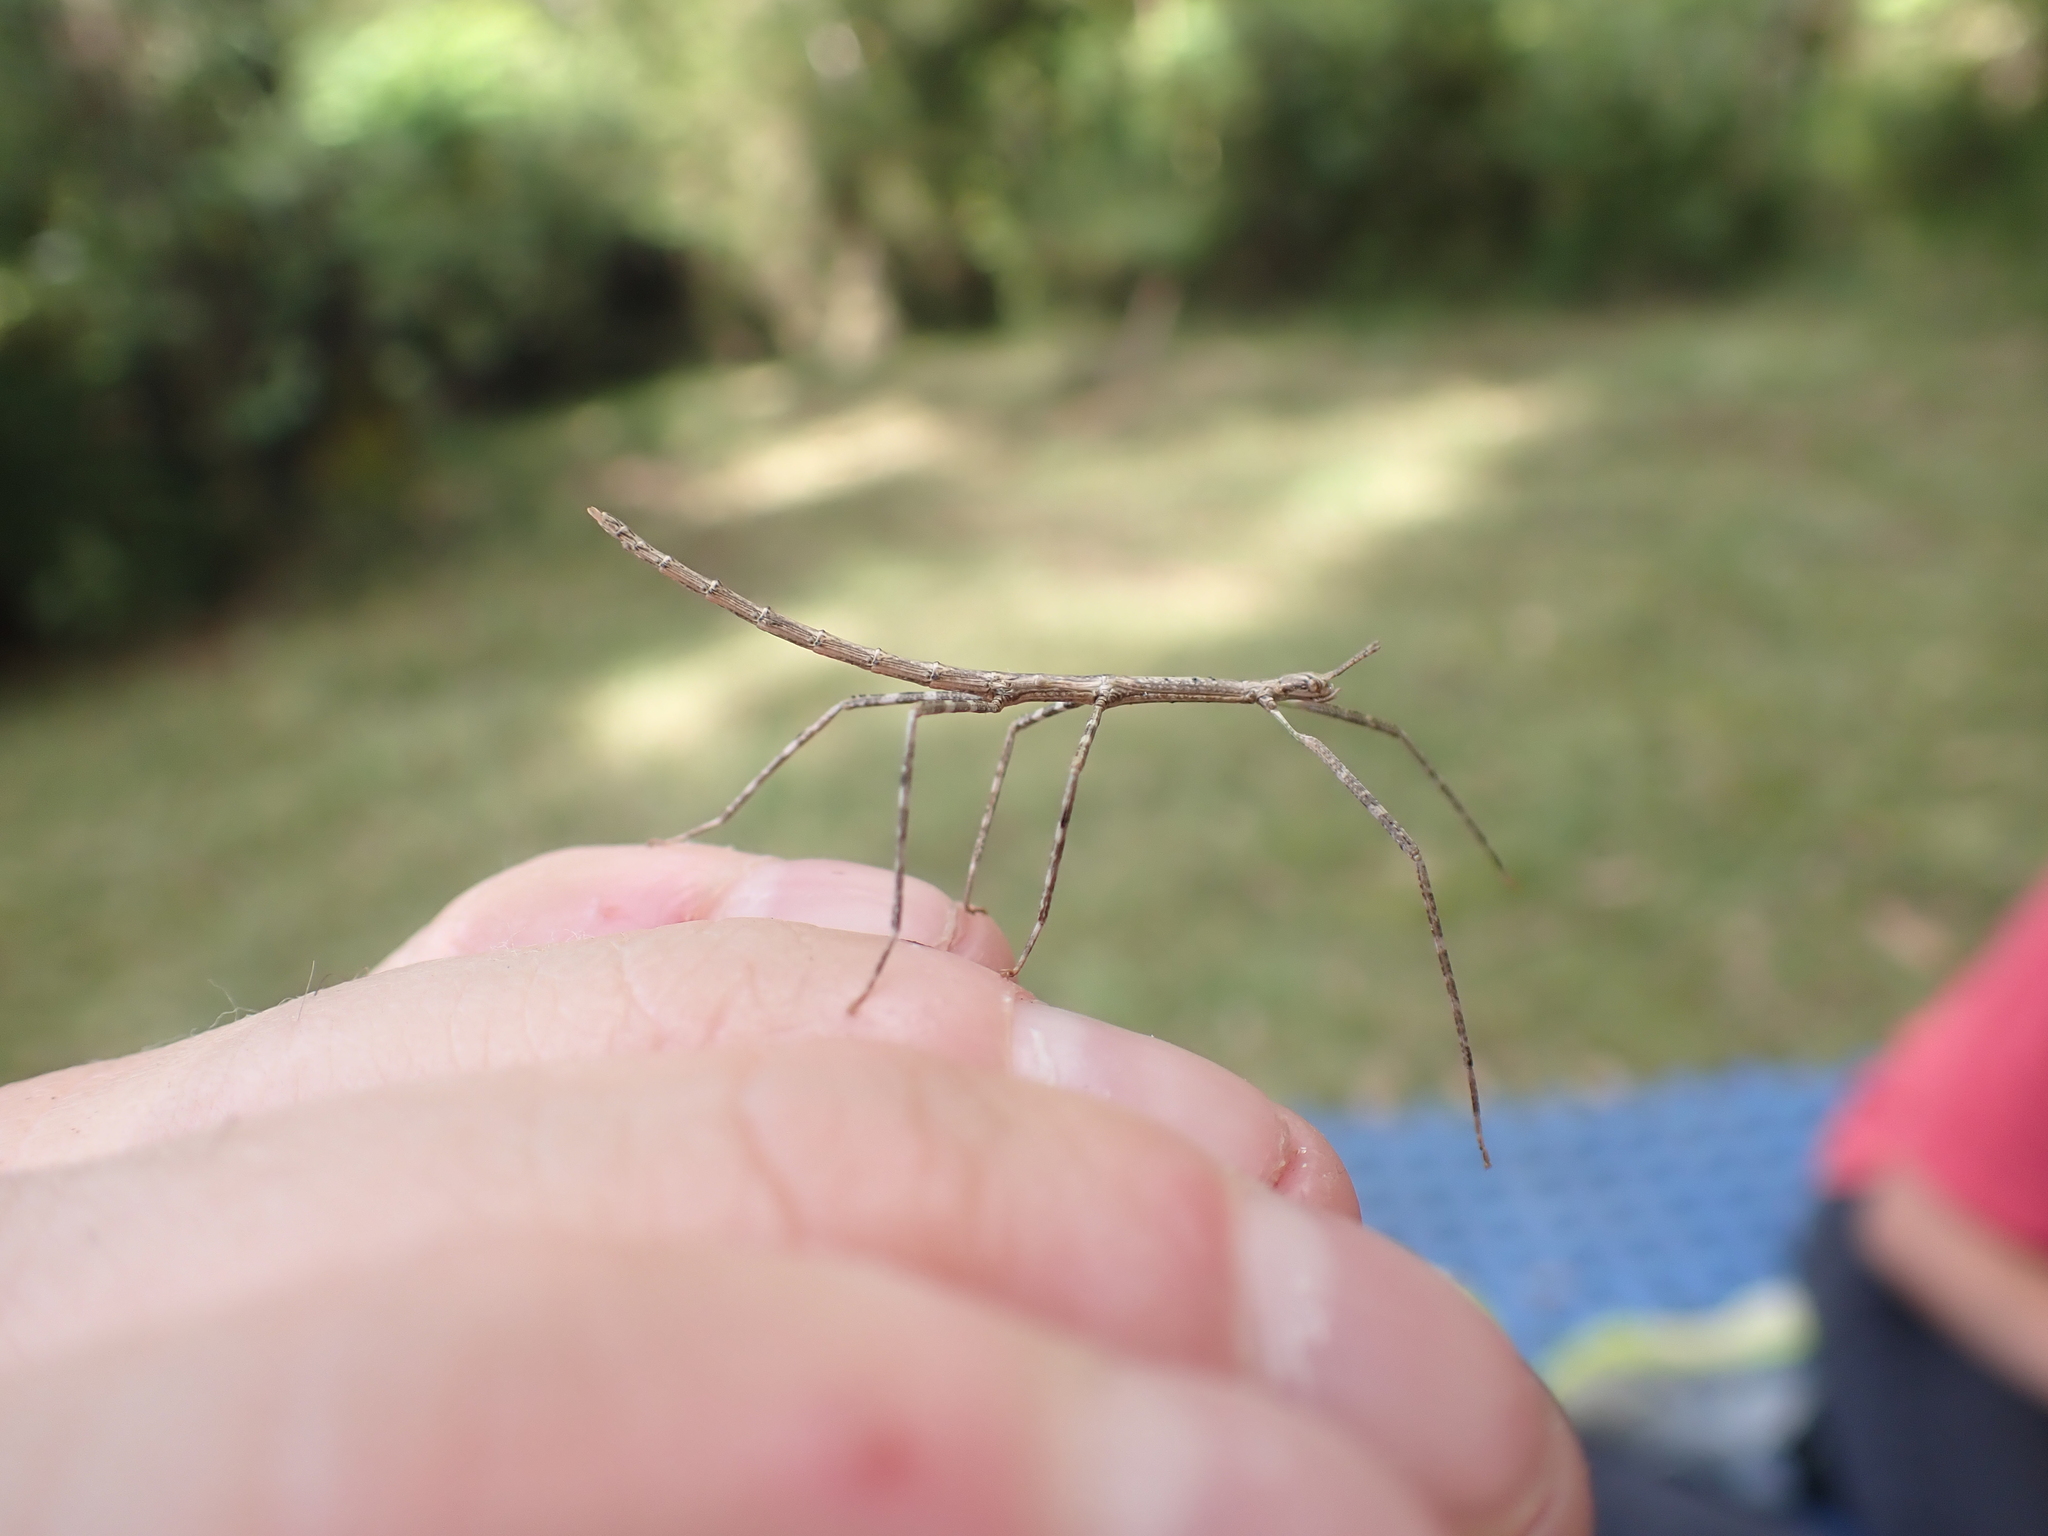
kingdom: Animalia
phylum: Arthropoda
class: Insecta
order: Phasmida
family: Phasmatidae
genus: Ctenomorpha
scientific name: Ctenomorpha marginipennis
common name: Margined-winged stick-insect
